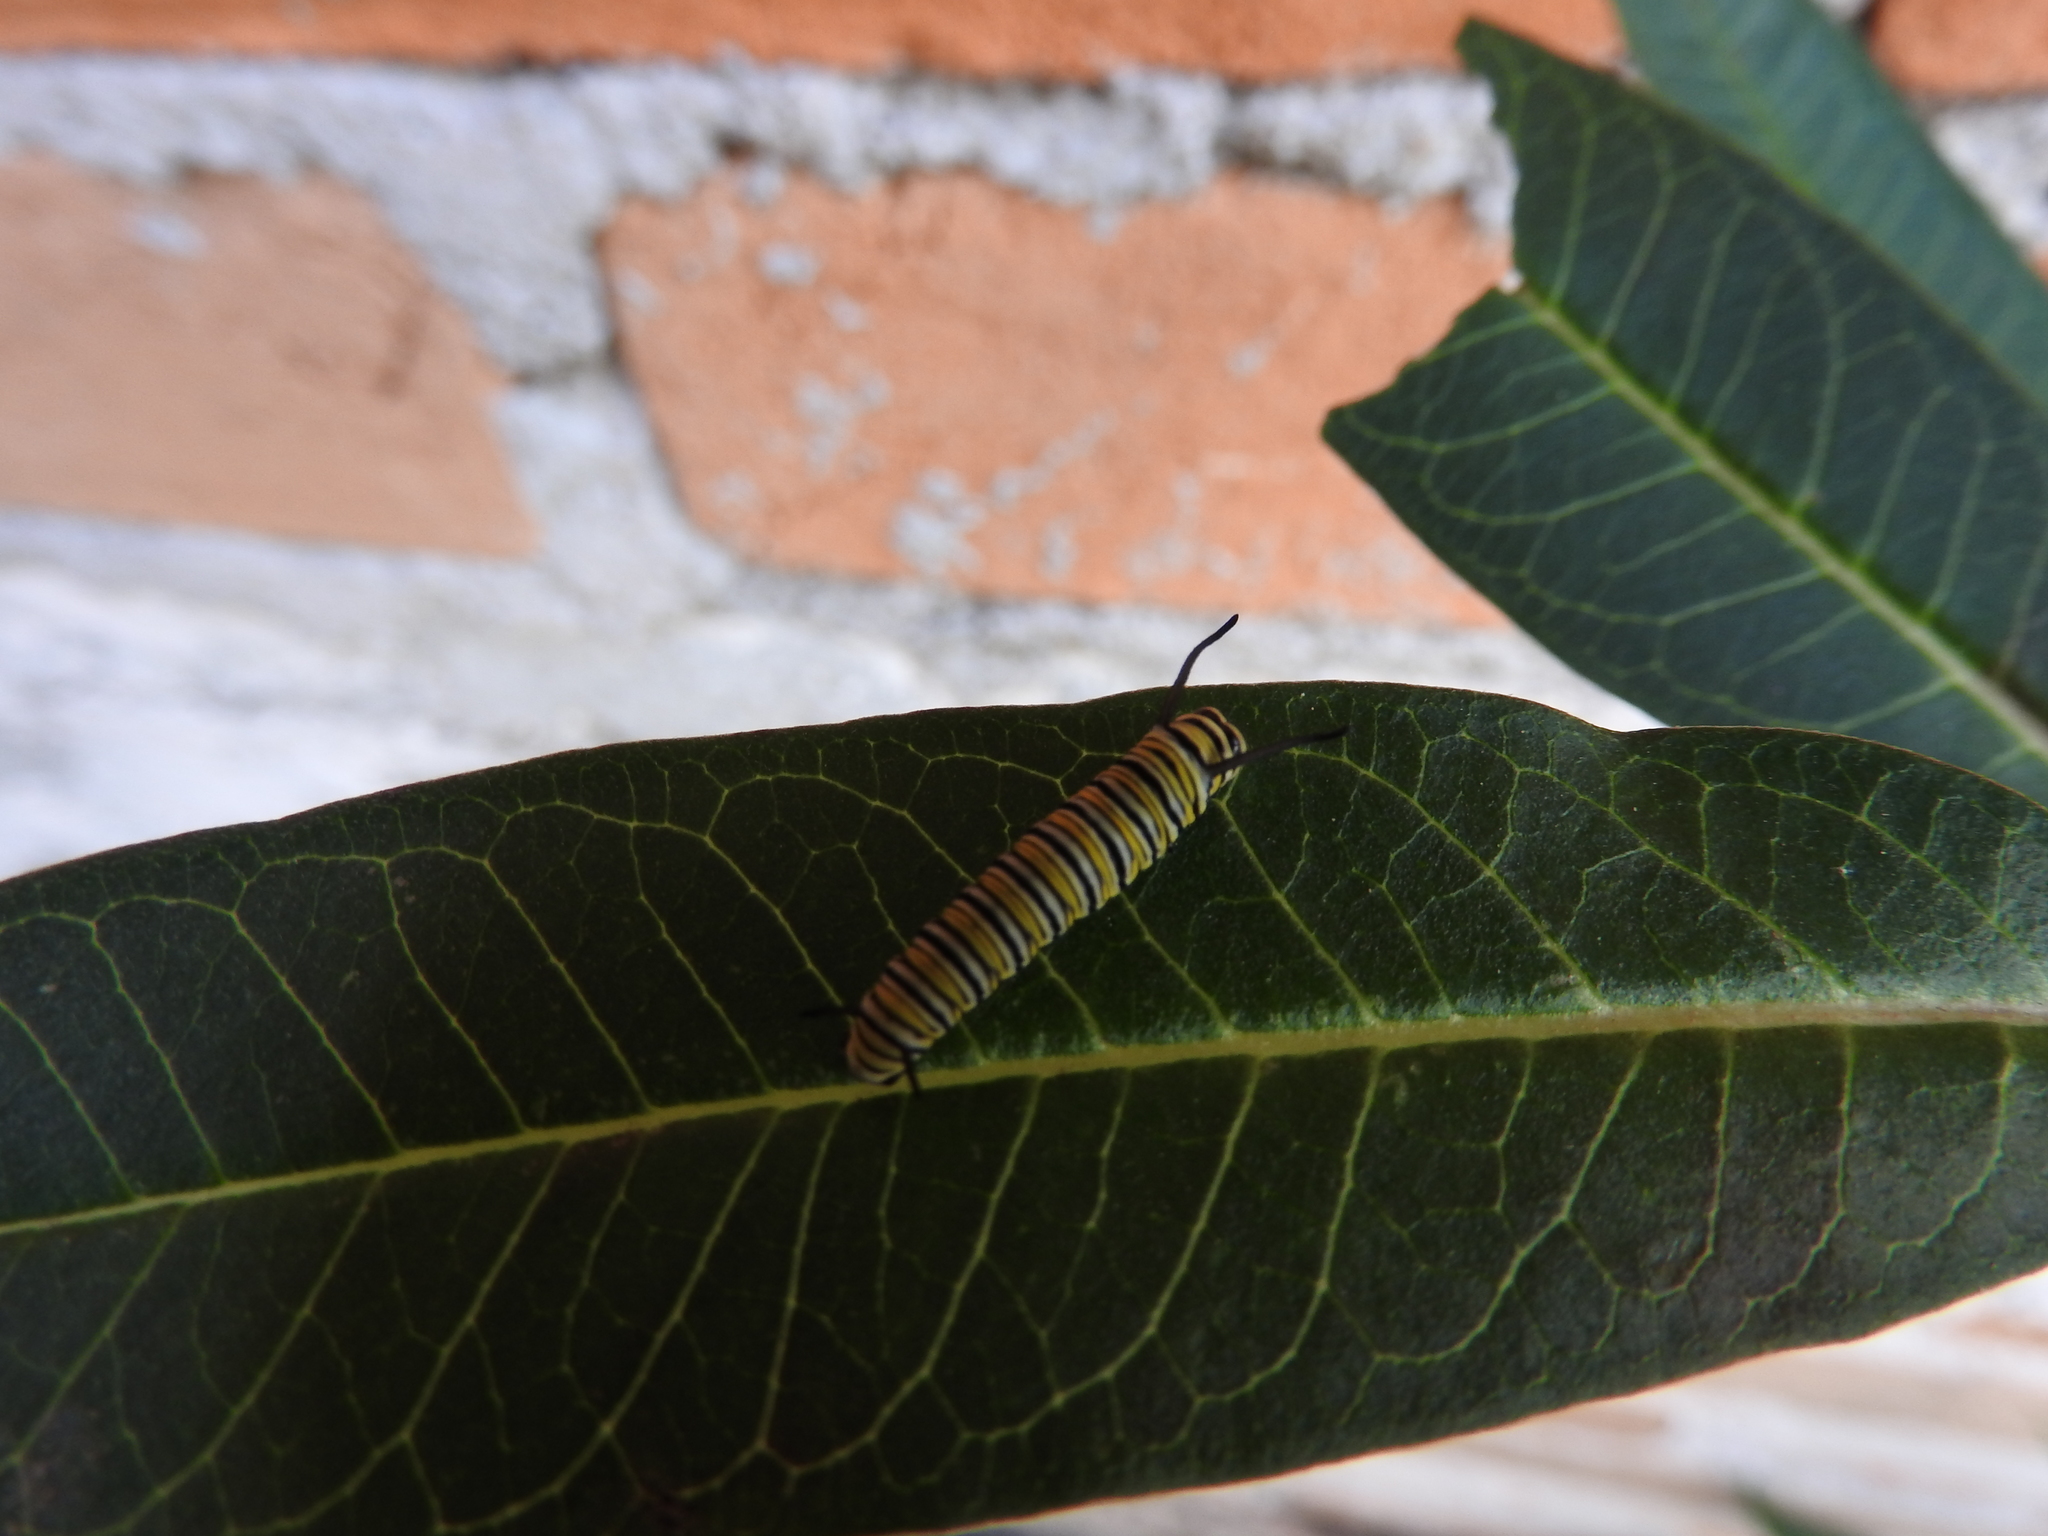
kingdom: Animalia
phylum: Arthropoda
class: Insecta
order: Lepidoptera
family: Nymphalidae
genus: Danaus
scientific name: Danaus plexippus
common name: Monarch
